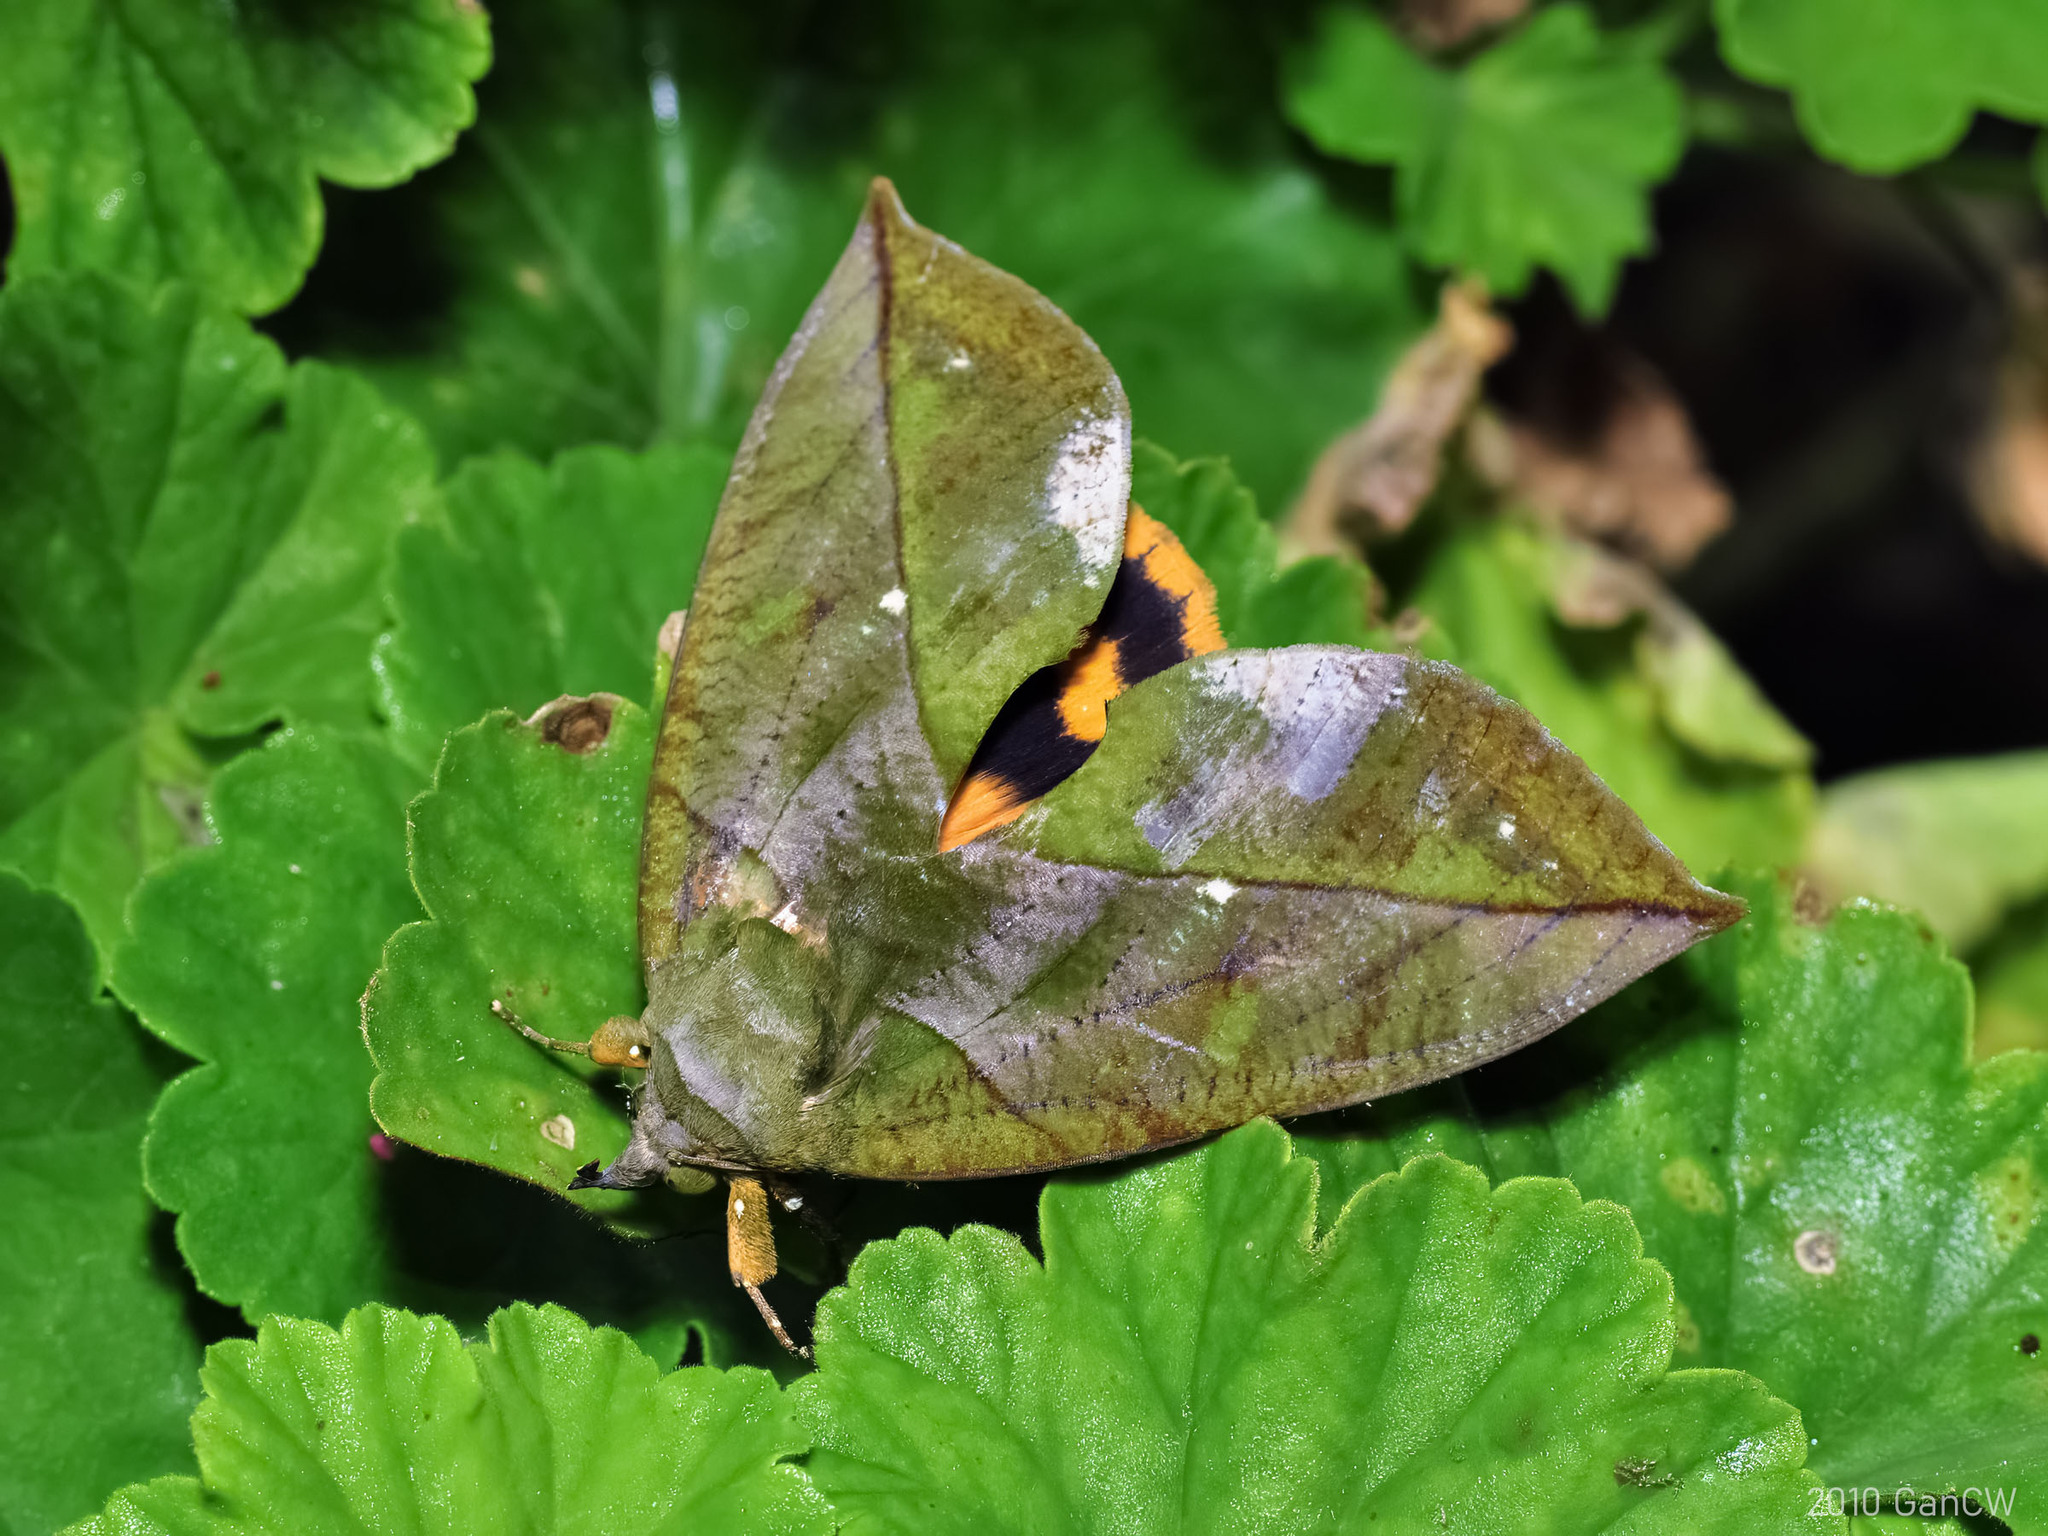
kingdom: Animalia
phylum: Arthropoda
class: Insecta
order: Lepidoptera
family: Erebidae
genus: Eudocima
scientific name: Eudocima sikhimensis
